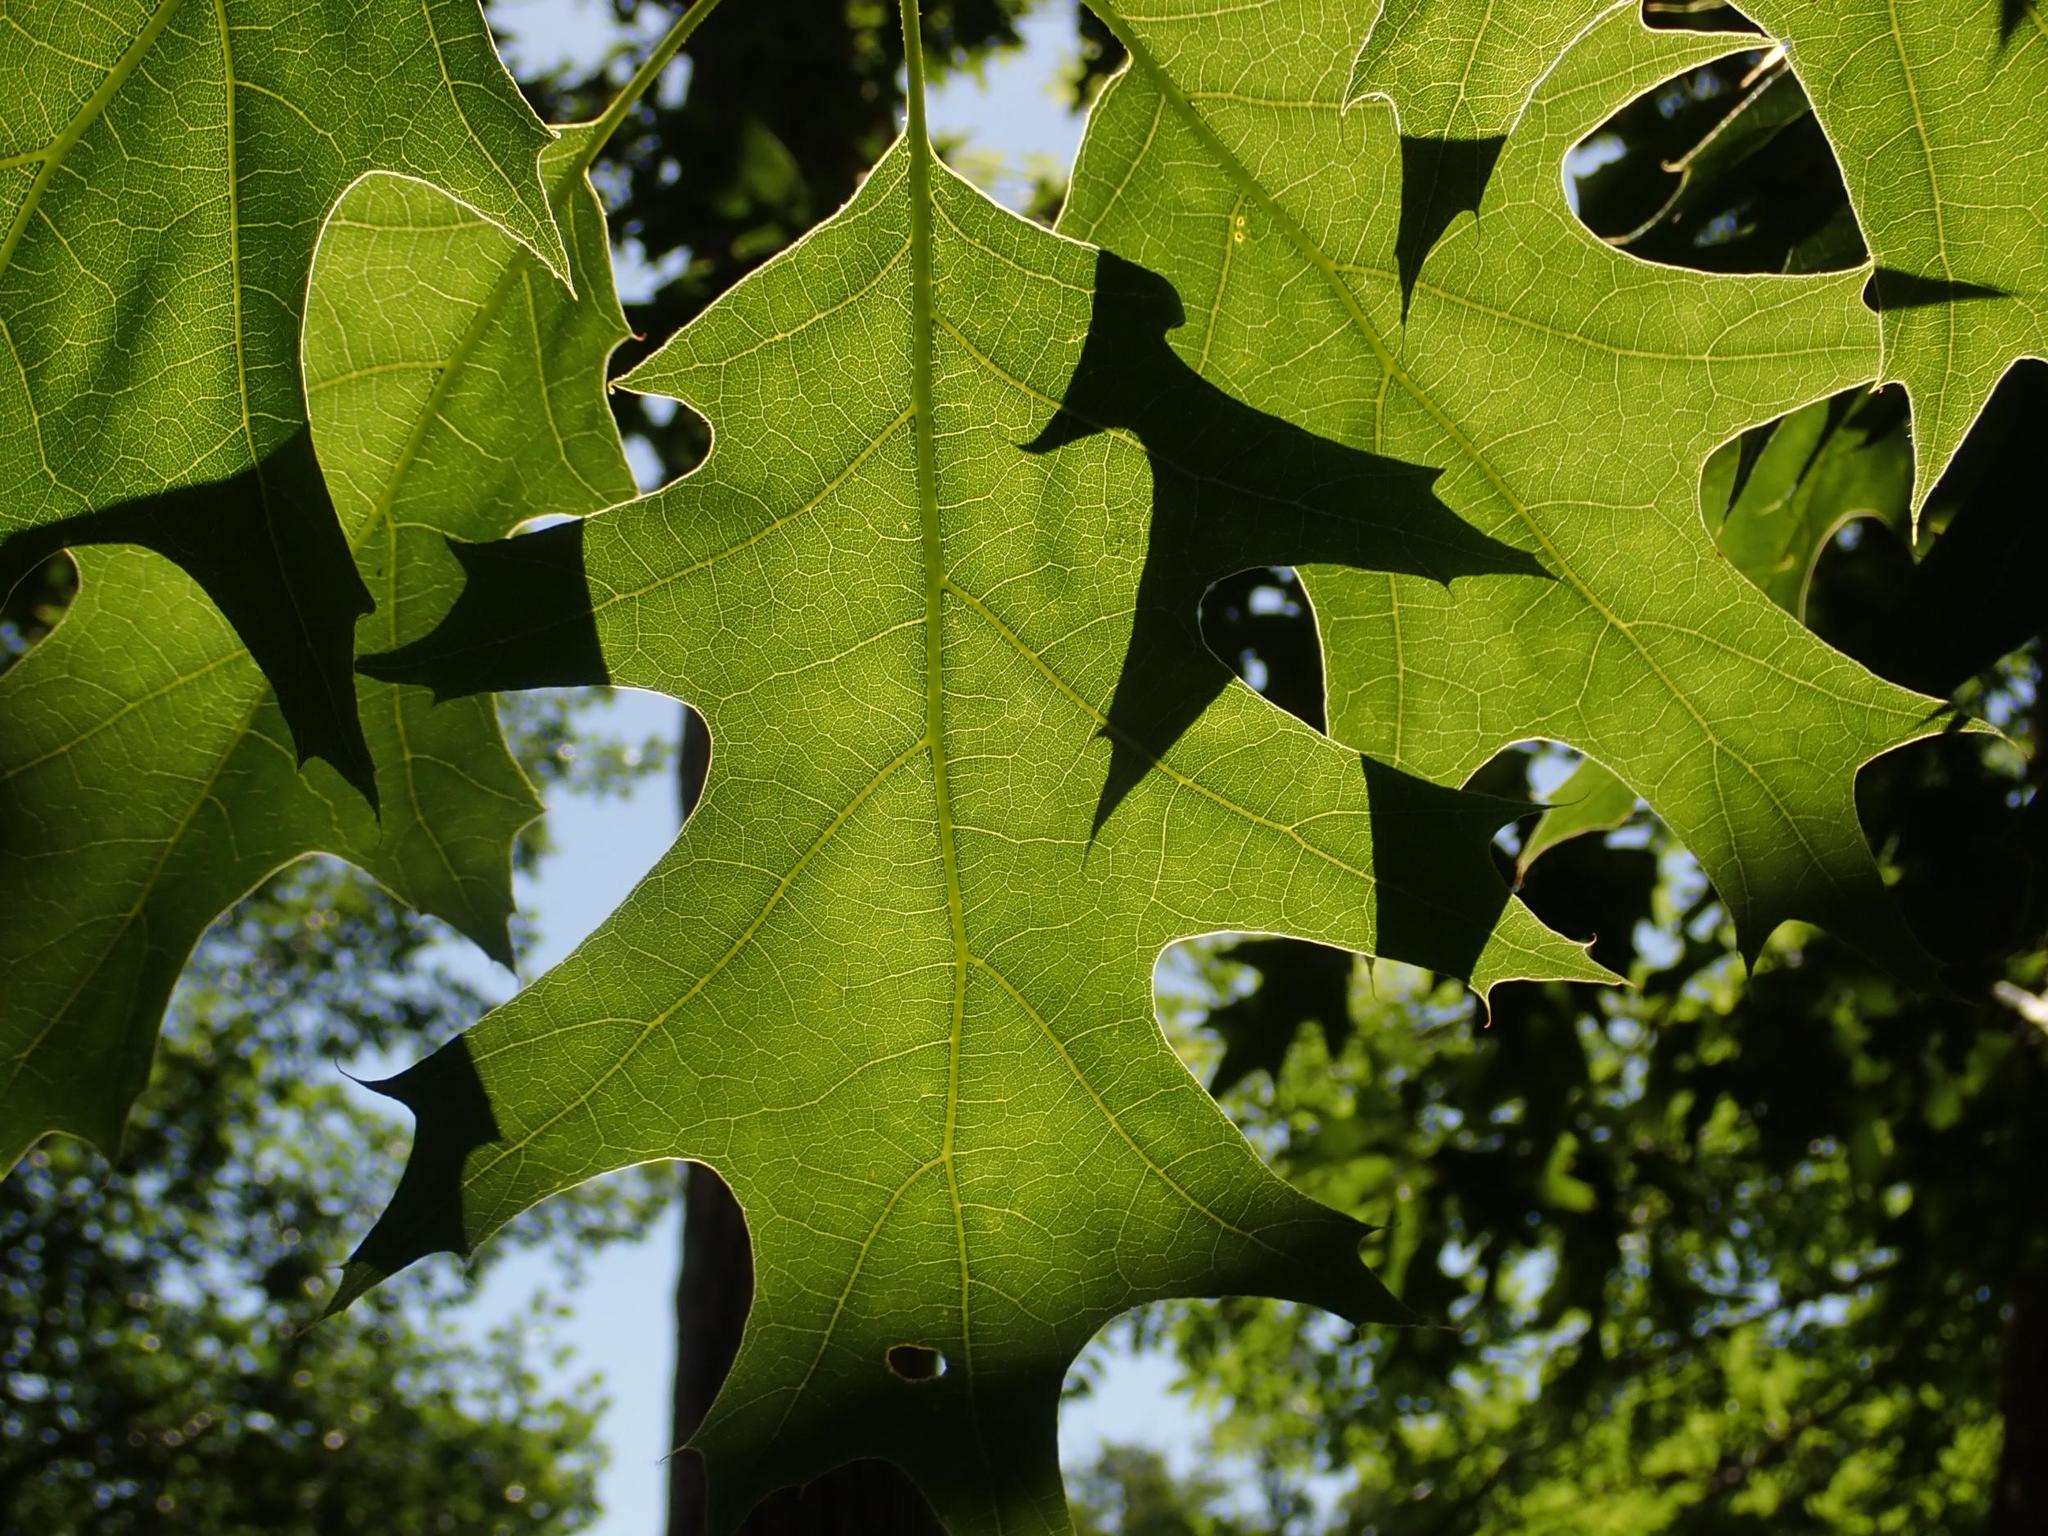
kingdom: Plantae
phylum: Tracheophyta
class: Magnoliopsida
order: Fagales
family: Fagaceae
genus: Quercus
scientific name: Quercus rubra
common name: Red oak
